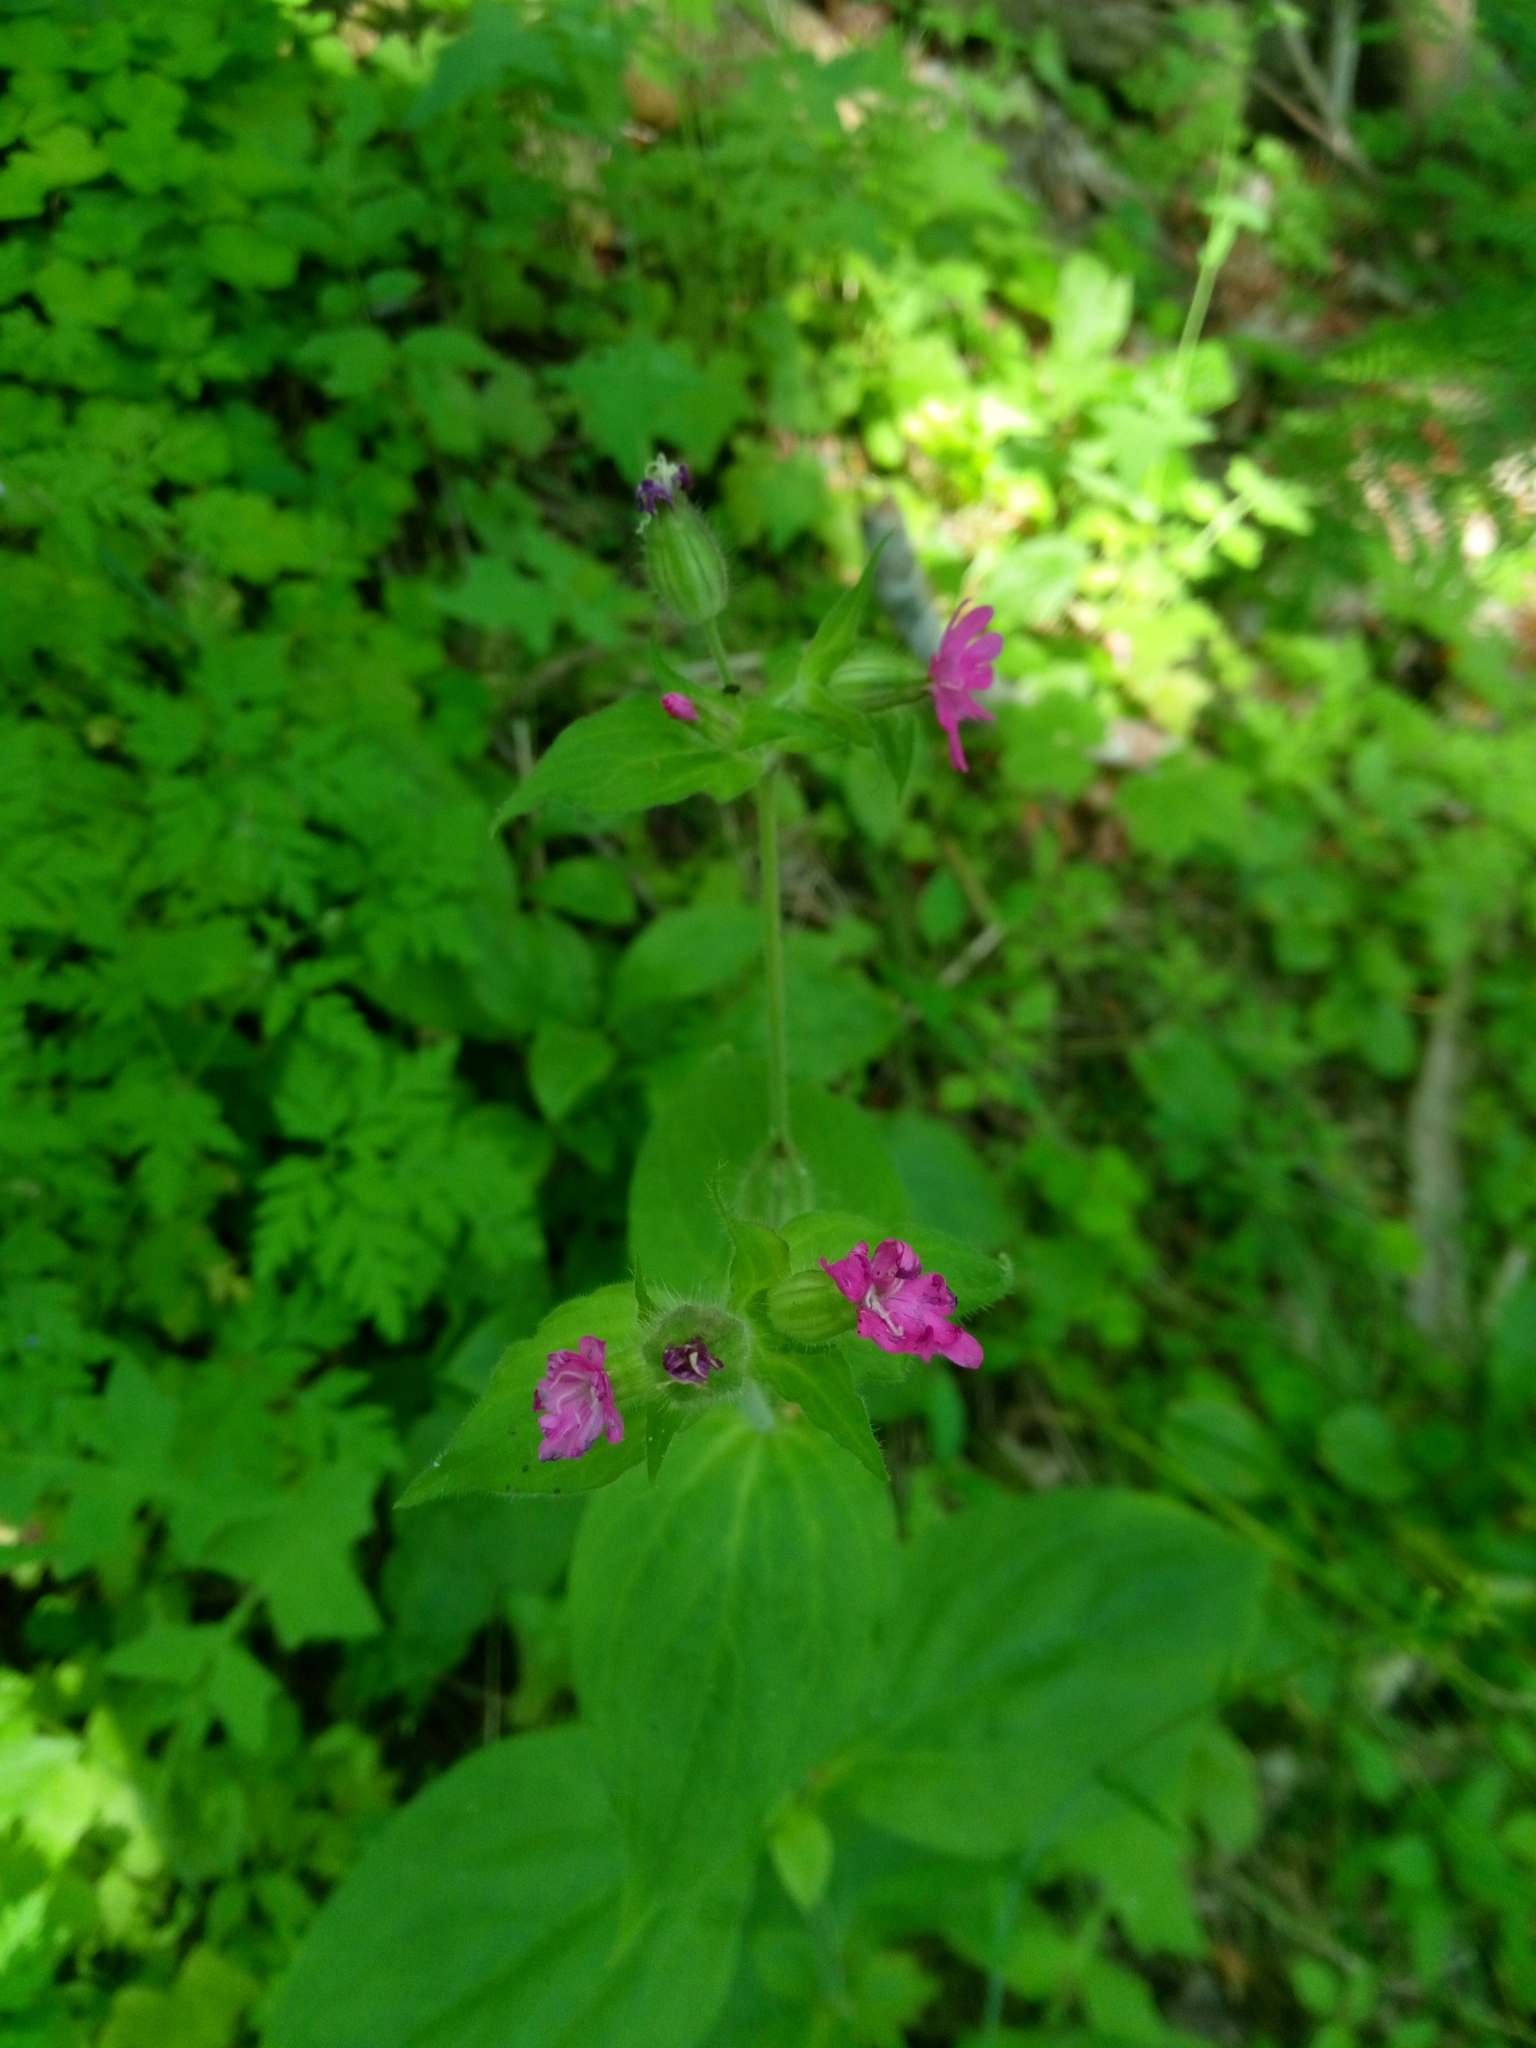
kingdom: Plantae
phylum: Tracheophyta
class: Magnoliopsida
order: Caryophyllales
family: Caryophyllaceae
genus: Silene
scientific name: Silene dioica
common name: Red campion
